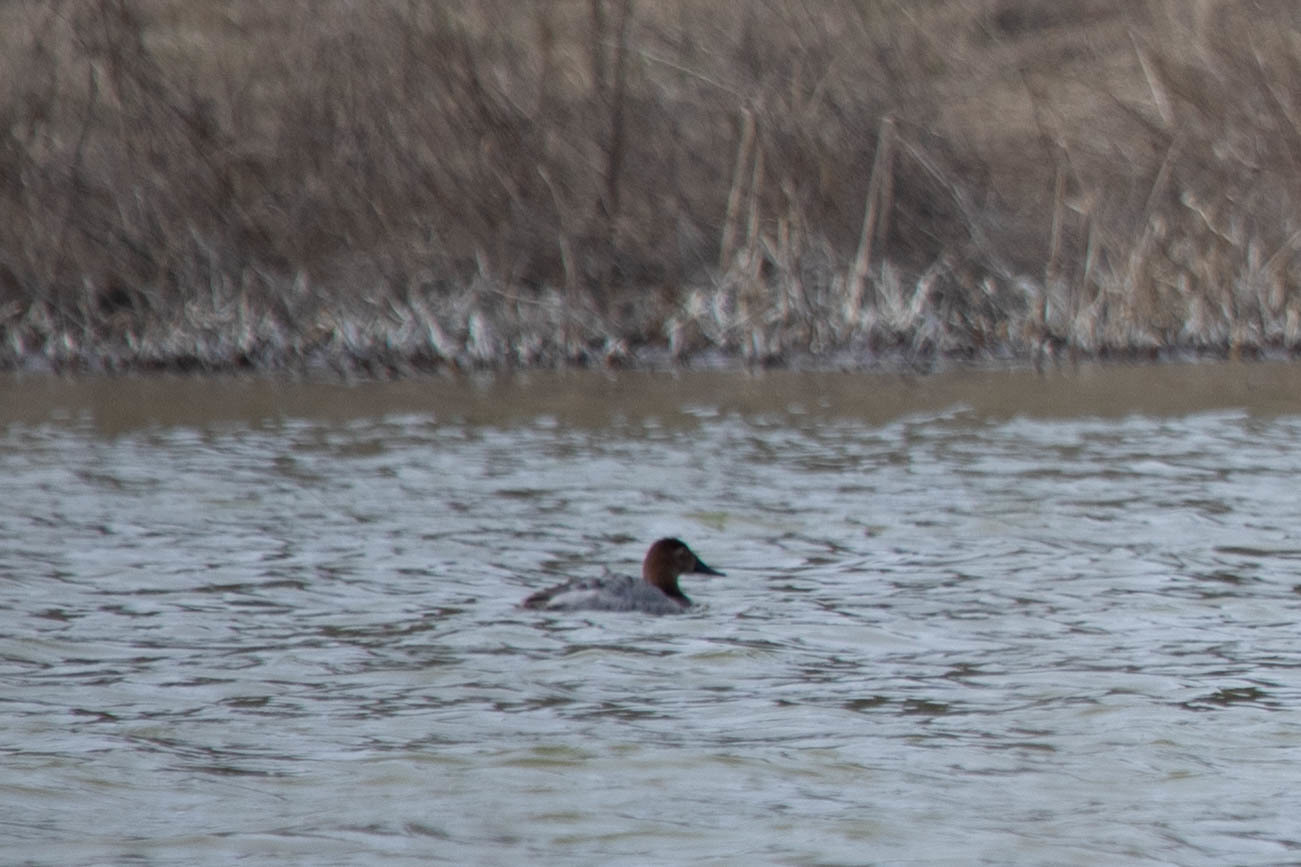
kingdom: Animalia
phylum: Chordata
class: Aves
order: Anseriformes
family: Anatidae
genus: Aythya
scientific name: Aythya valisineria
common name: Canvasback
